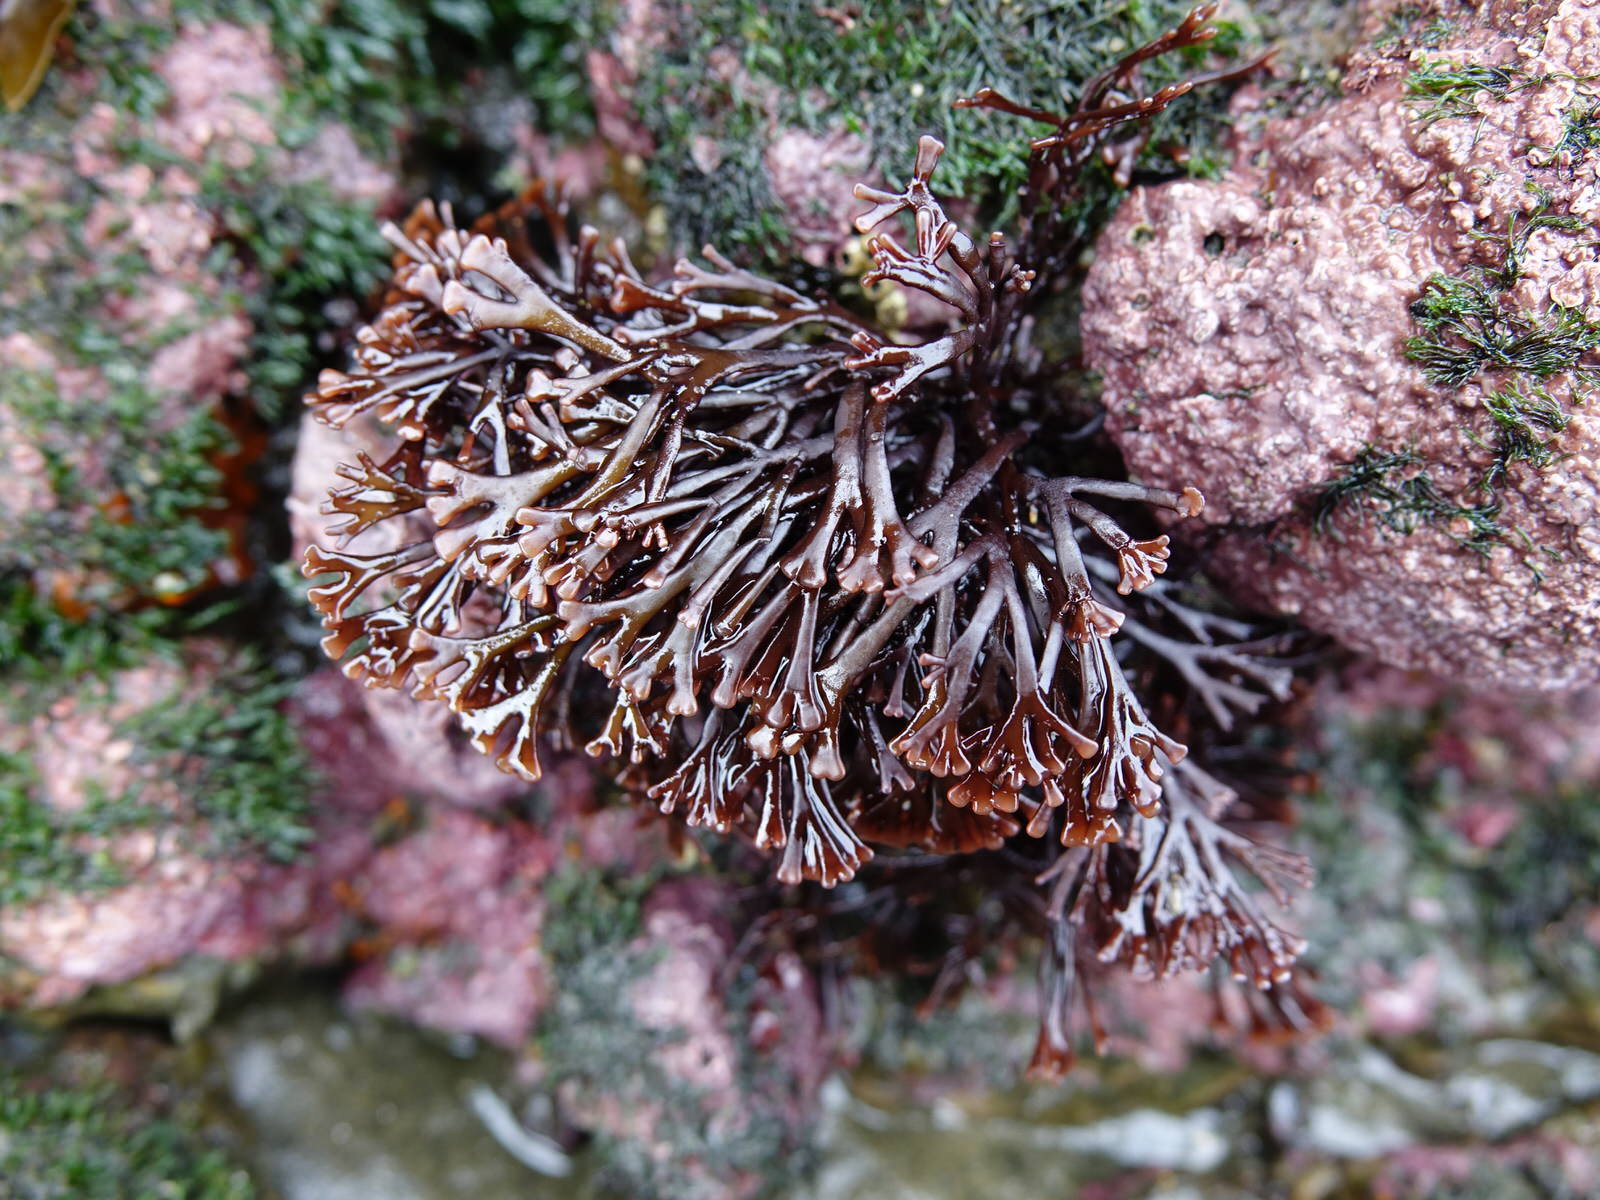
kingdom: Plantae
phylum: Rhodophyta
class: Florideophyceae
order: Gigartinales
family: Phyllophoraceae
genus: Gymnogongrus
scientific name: Gymnogongrus humilis
